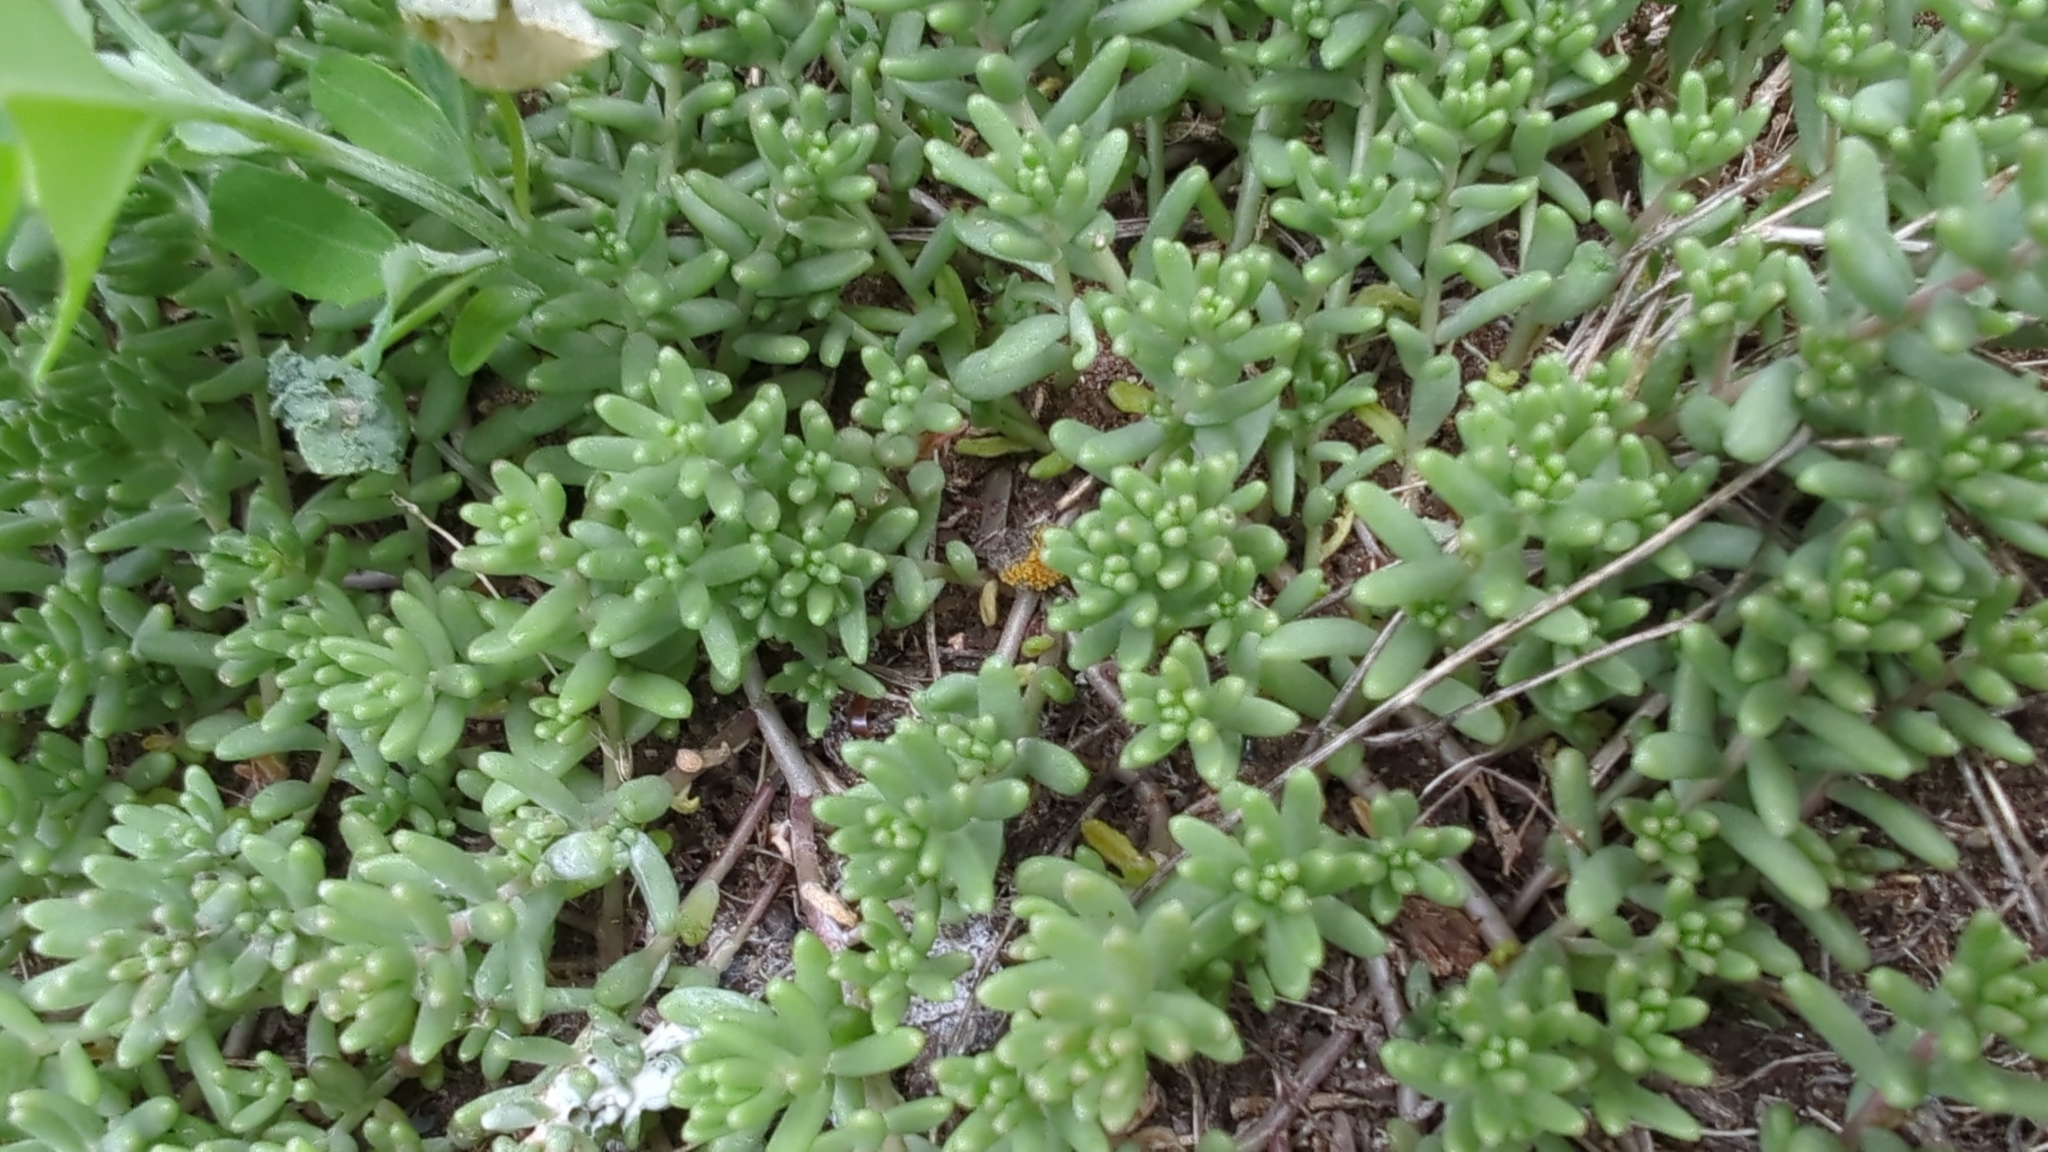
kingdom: Plantae
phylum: Tracheophyta
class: Magnoliopsida
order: Saxifragales
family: Crassulaceae
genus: Sedum
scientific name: Sedum album
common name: White stonecrop
